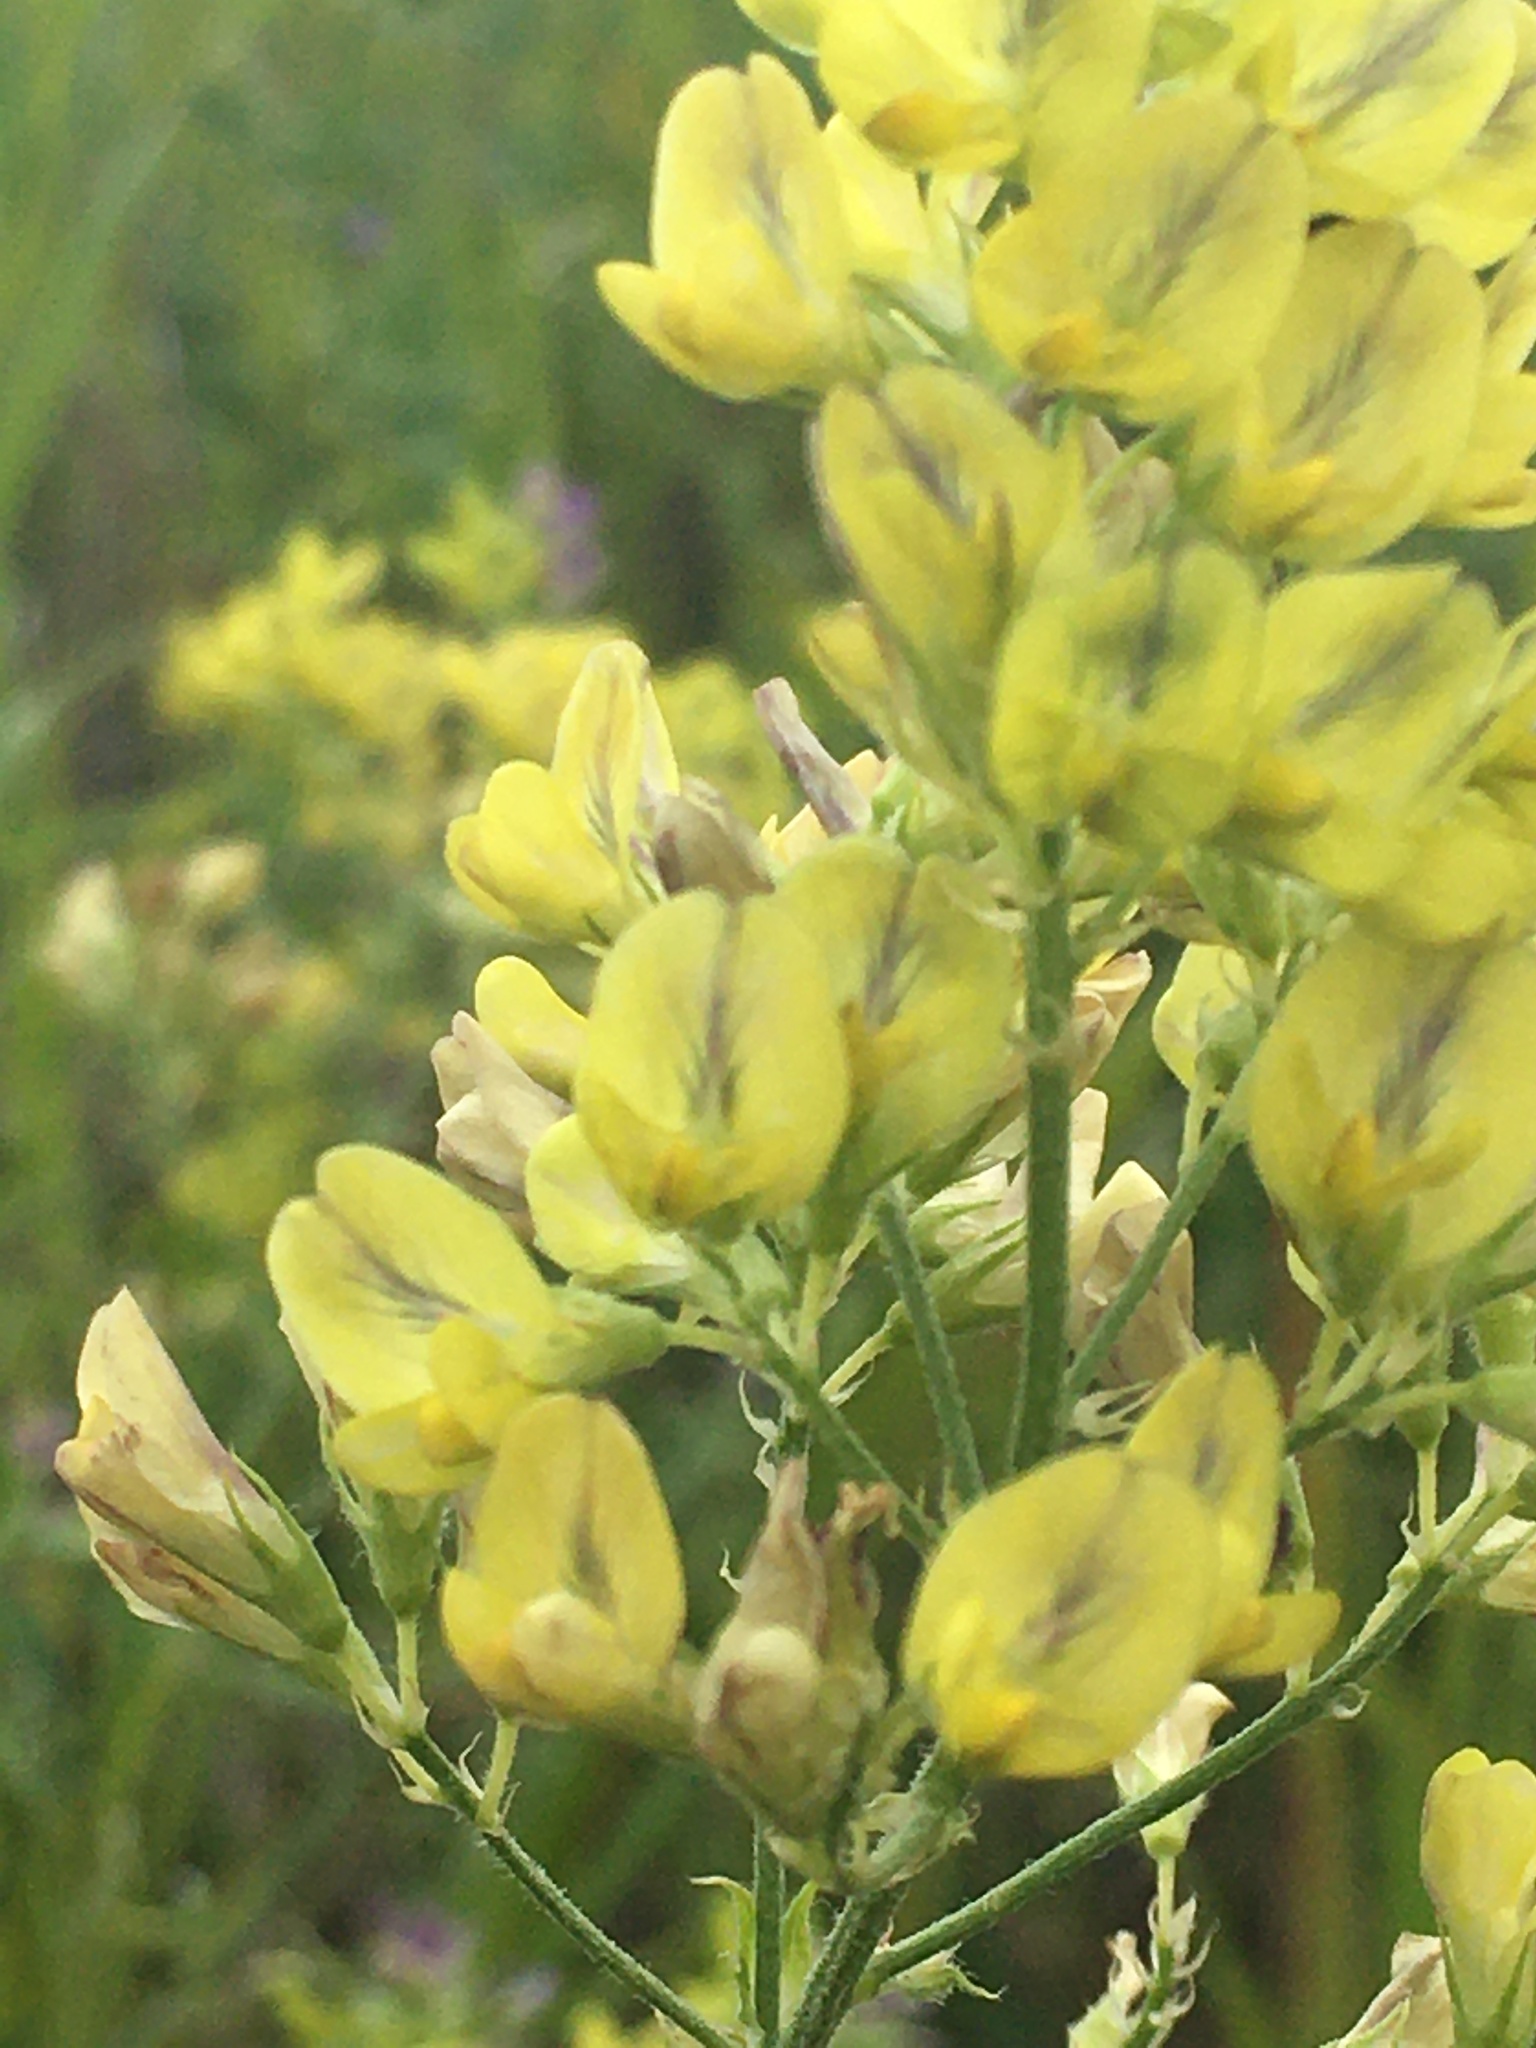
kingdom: Plantae
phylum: Tracheophyta
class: Magnoliopsida
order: Fabales
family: Fabaceae
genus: Medicago
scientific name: Medicago varia
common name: Sand lucerne
